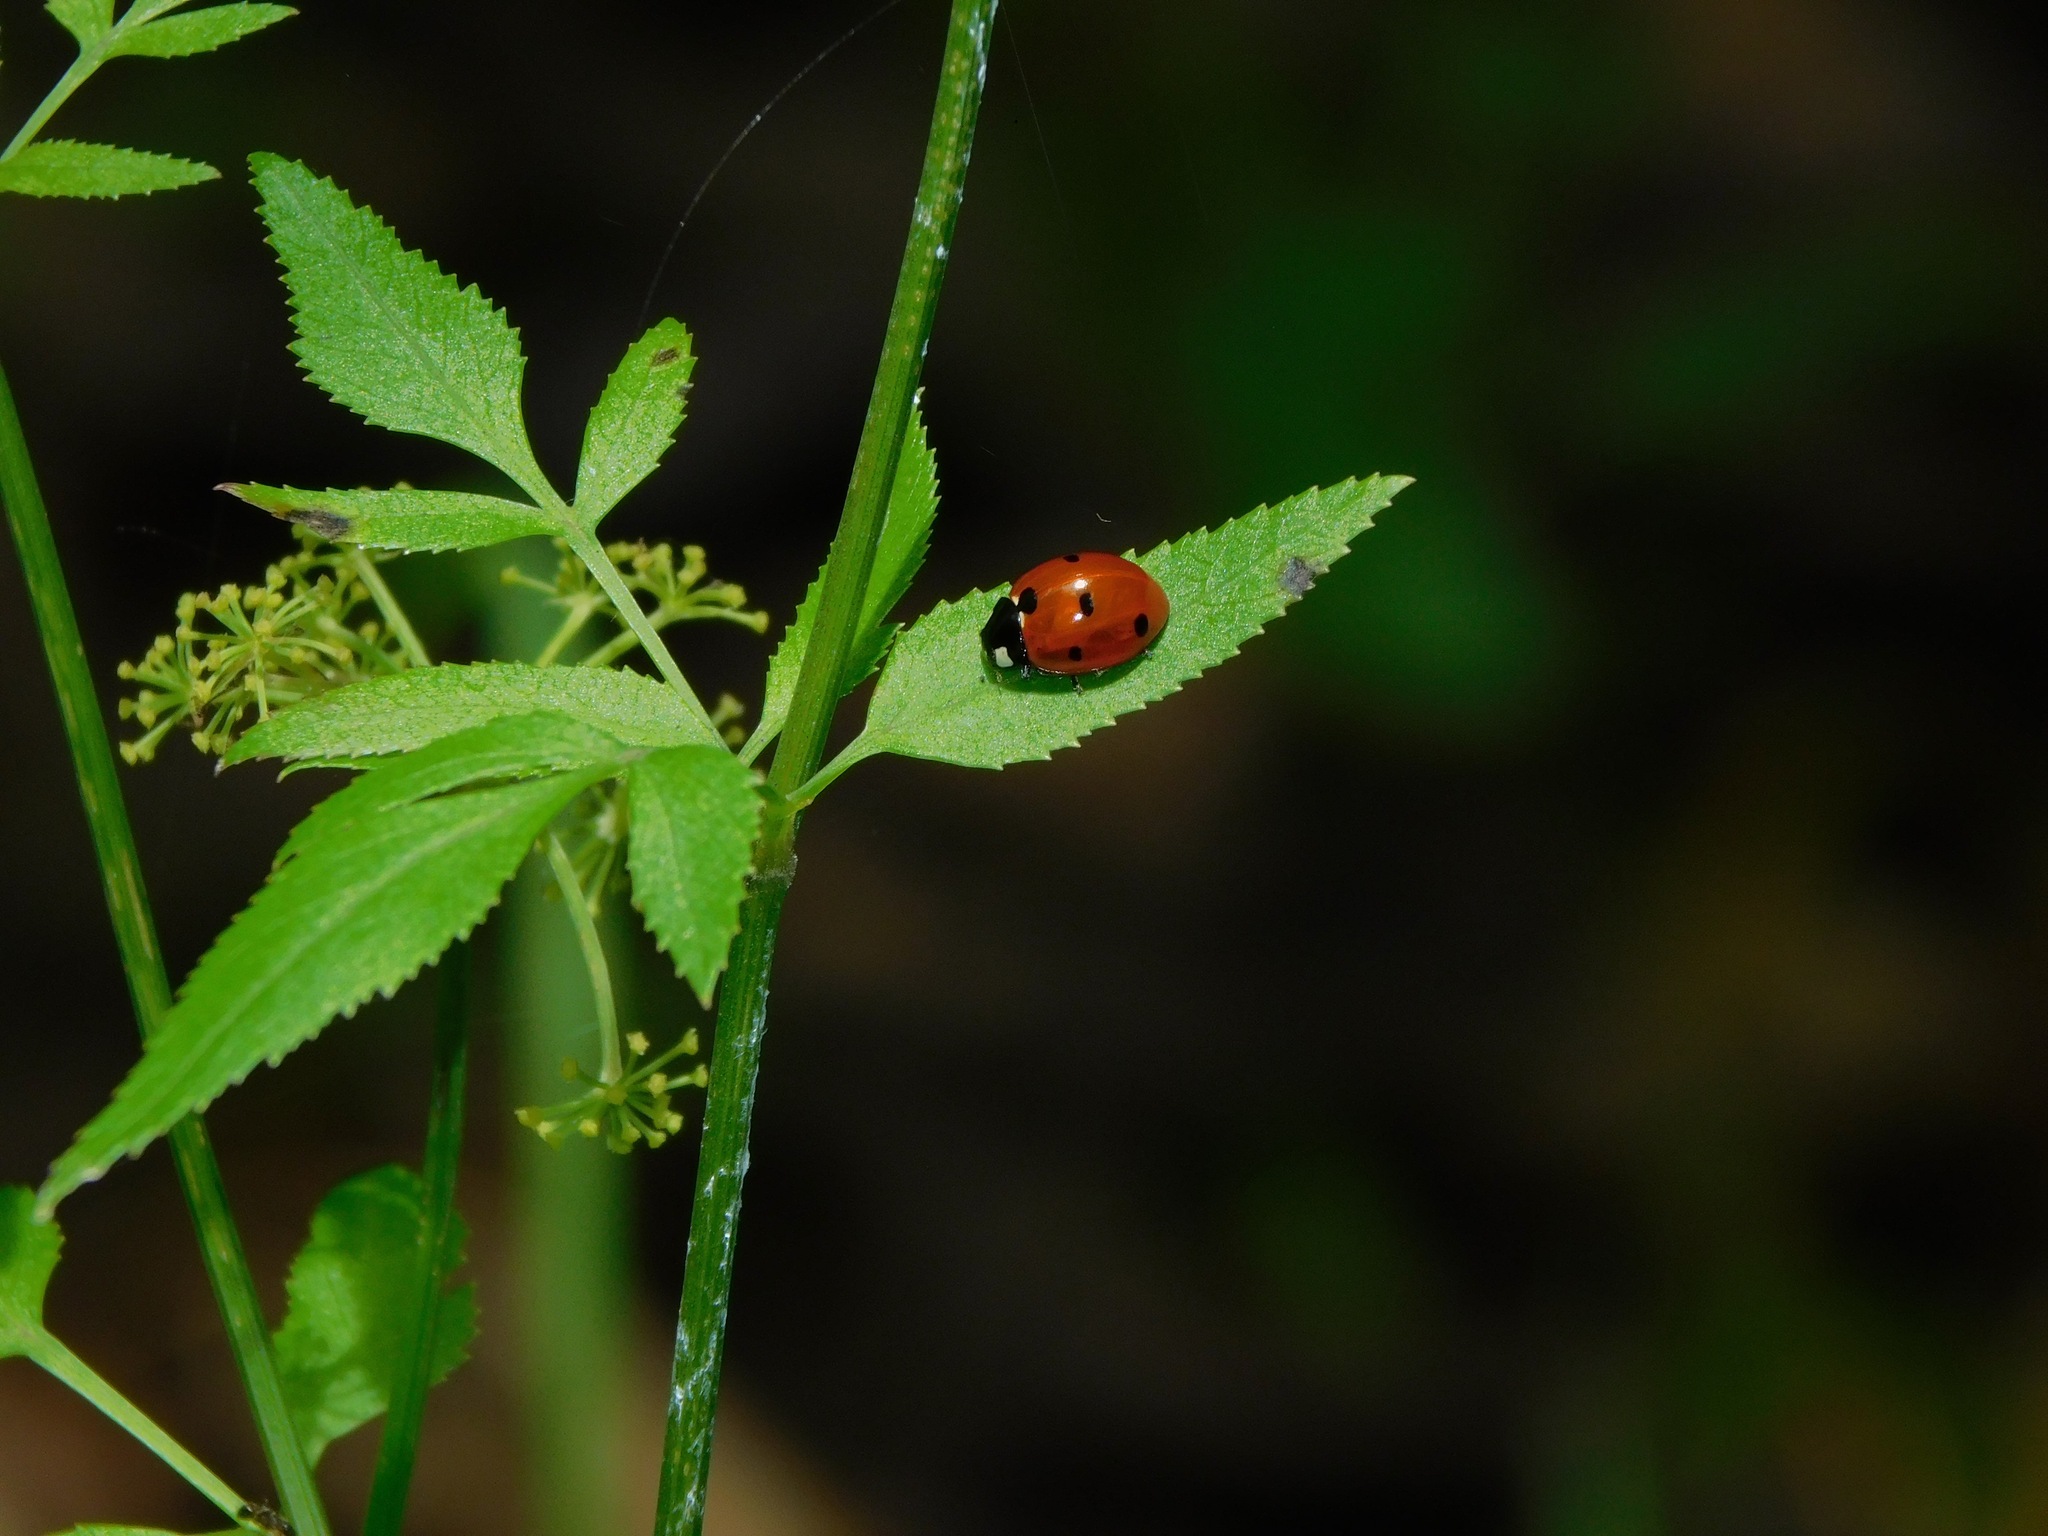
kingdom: Animalia
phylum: Arthropoda
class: Insecta
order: Coleoptera
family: Coccinellidae
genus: Coccinella
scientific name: Coccinella septempunctata
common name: Sevenspotted lady beetle
